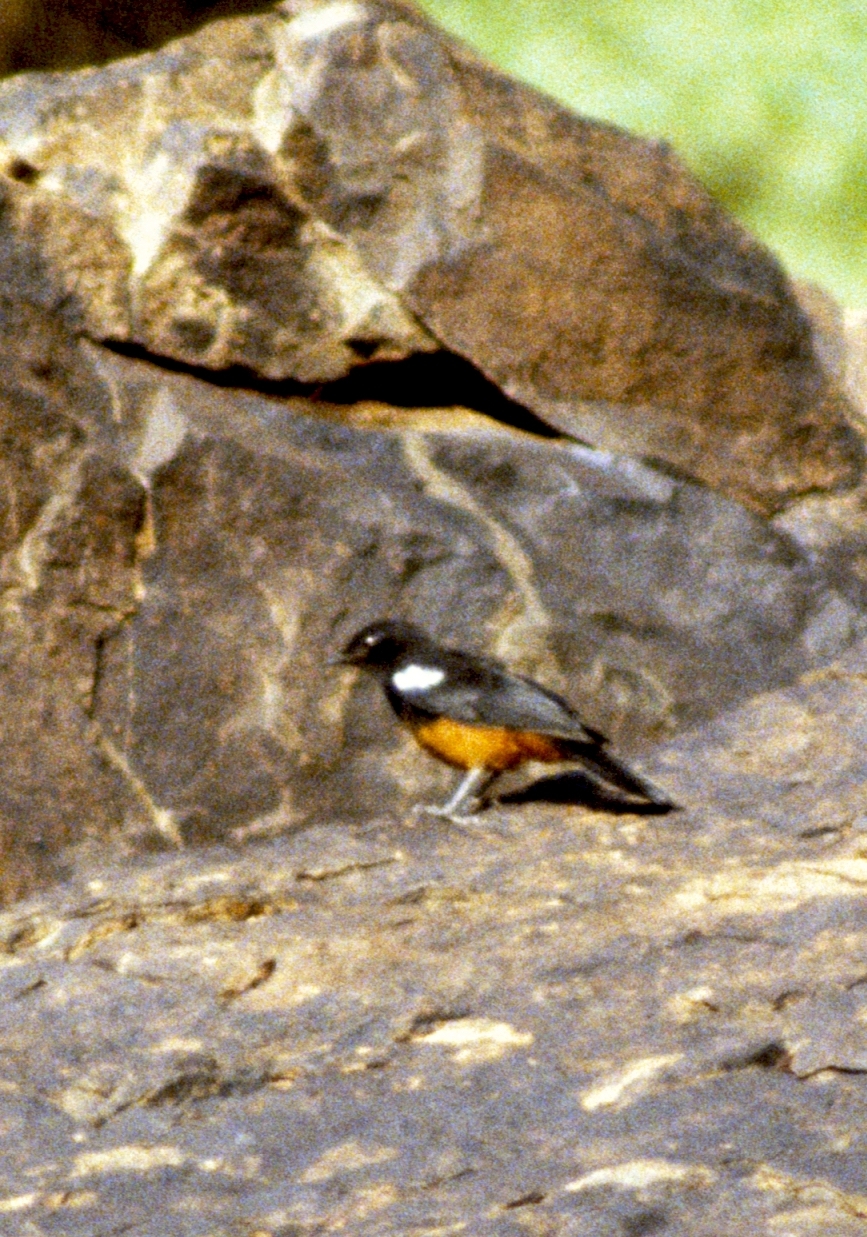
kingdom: Animalia
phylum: Chordata
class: Aves
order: Passeriformes
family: Muscicapidae
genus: Thamnolaea
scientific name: Thamnolaea cinnamomeiventris
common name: Mocking cliff chat
